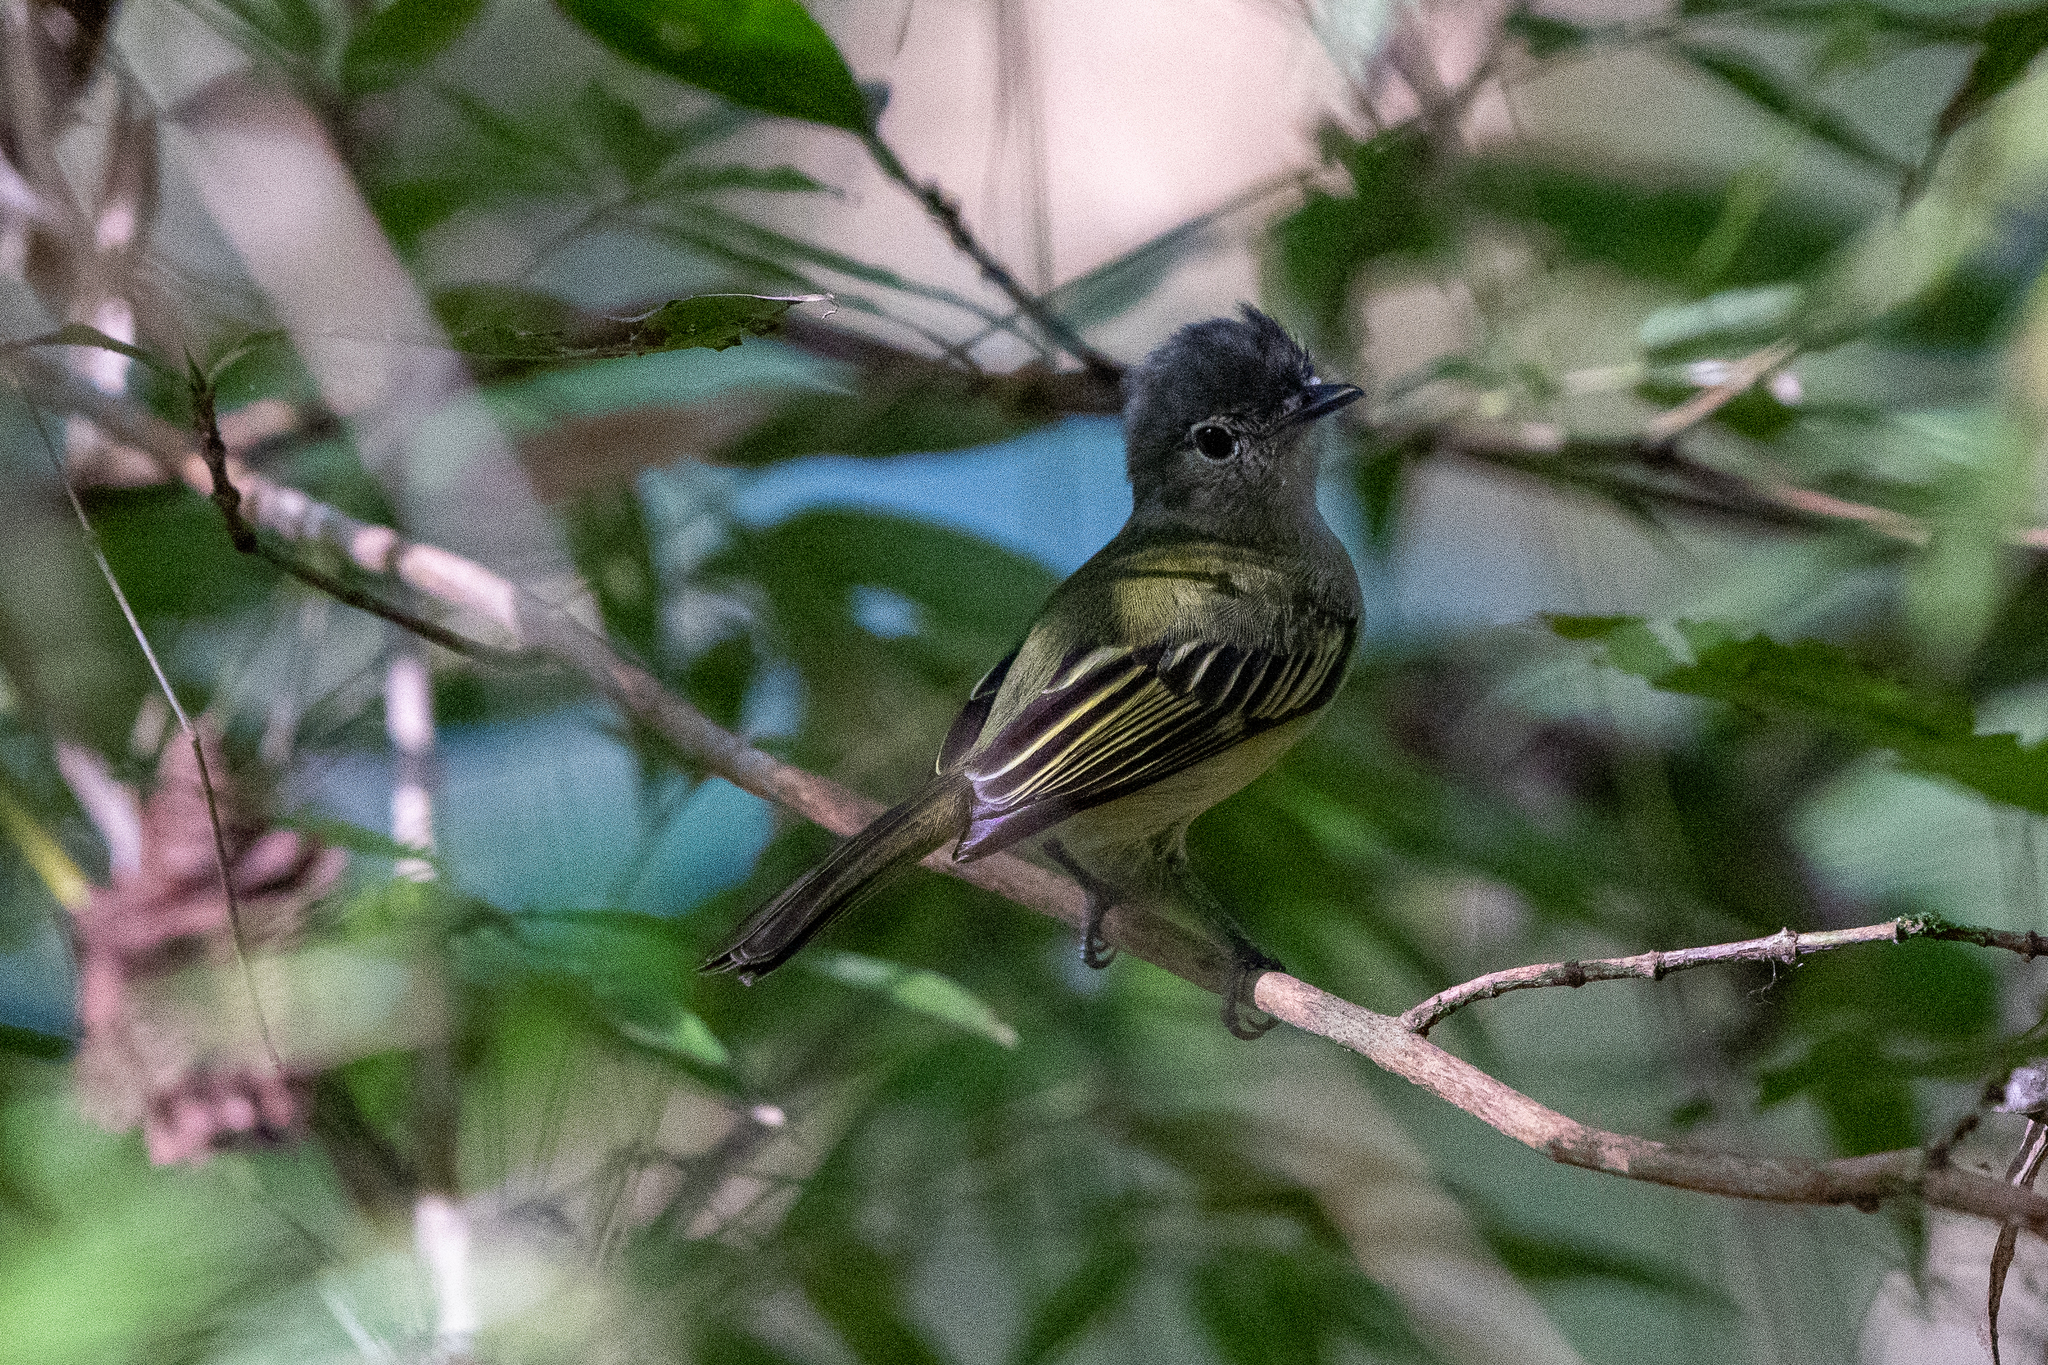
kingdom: Animalia
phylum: Chordata
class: Aves
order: Passeriformes
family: Tyrannidae
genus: Tolmomyias
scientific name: Tolmomyias assimilis
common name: Yellow-margined flycatcher
